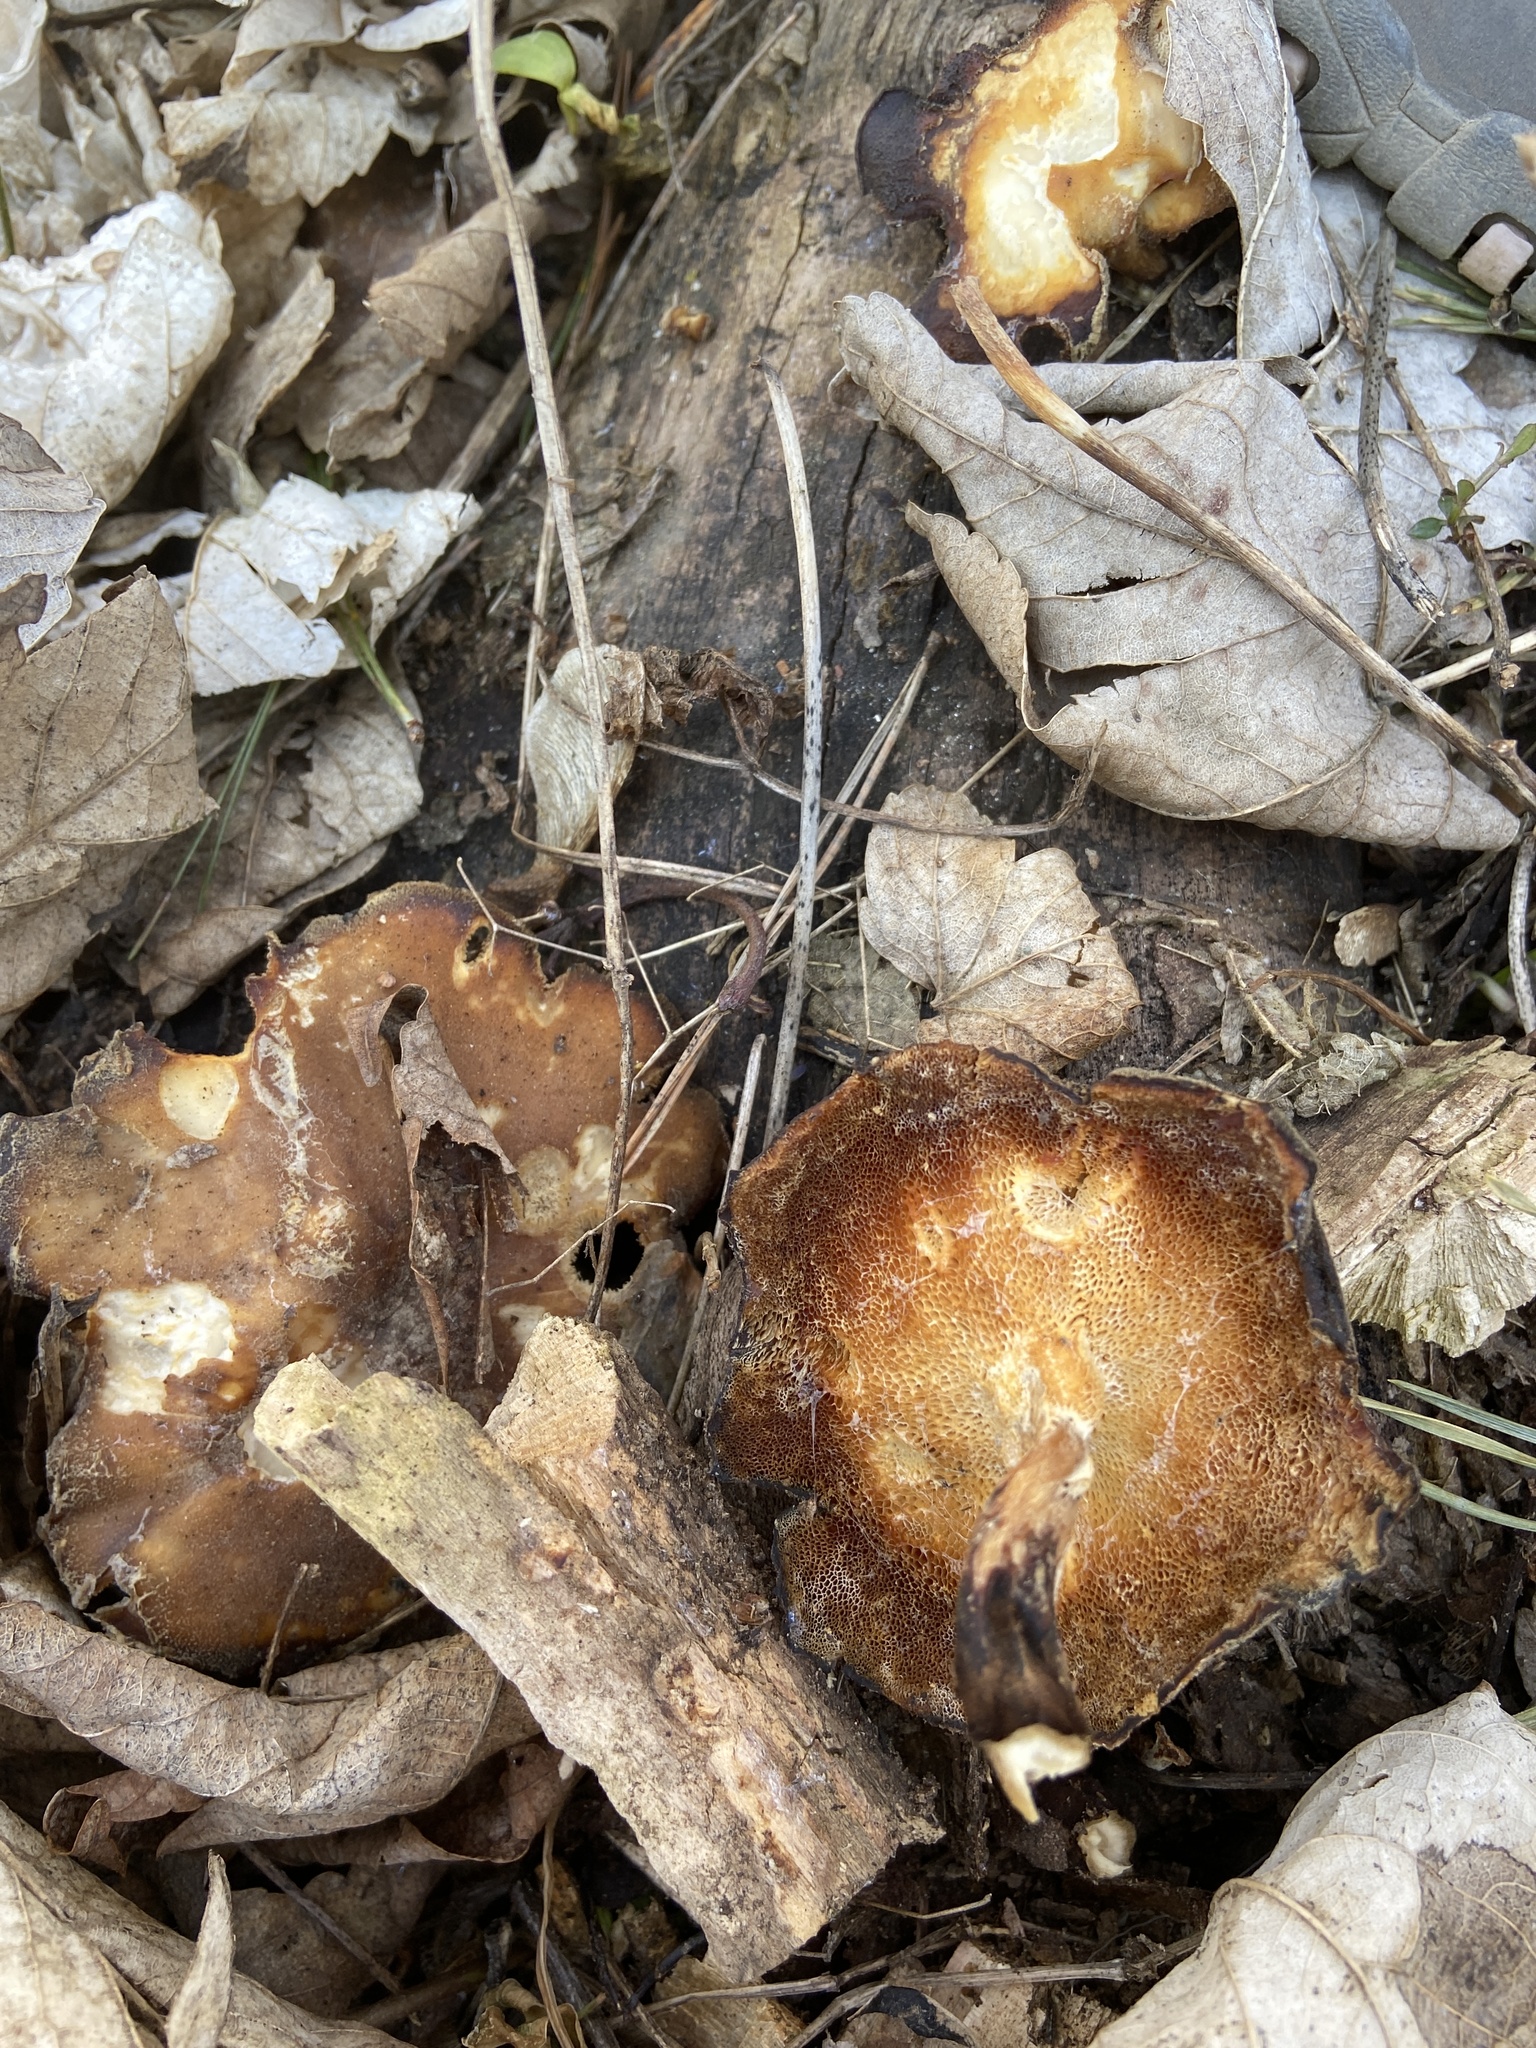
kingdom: Fungi
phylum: Basidiomycota
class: Agaricomycetes
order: Polyporales
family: Polyporaceae
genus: Lentinus
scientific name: Lentinus brumalis
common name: Winter polypore
